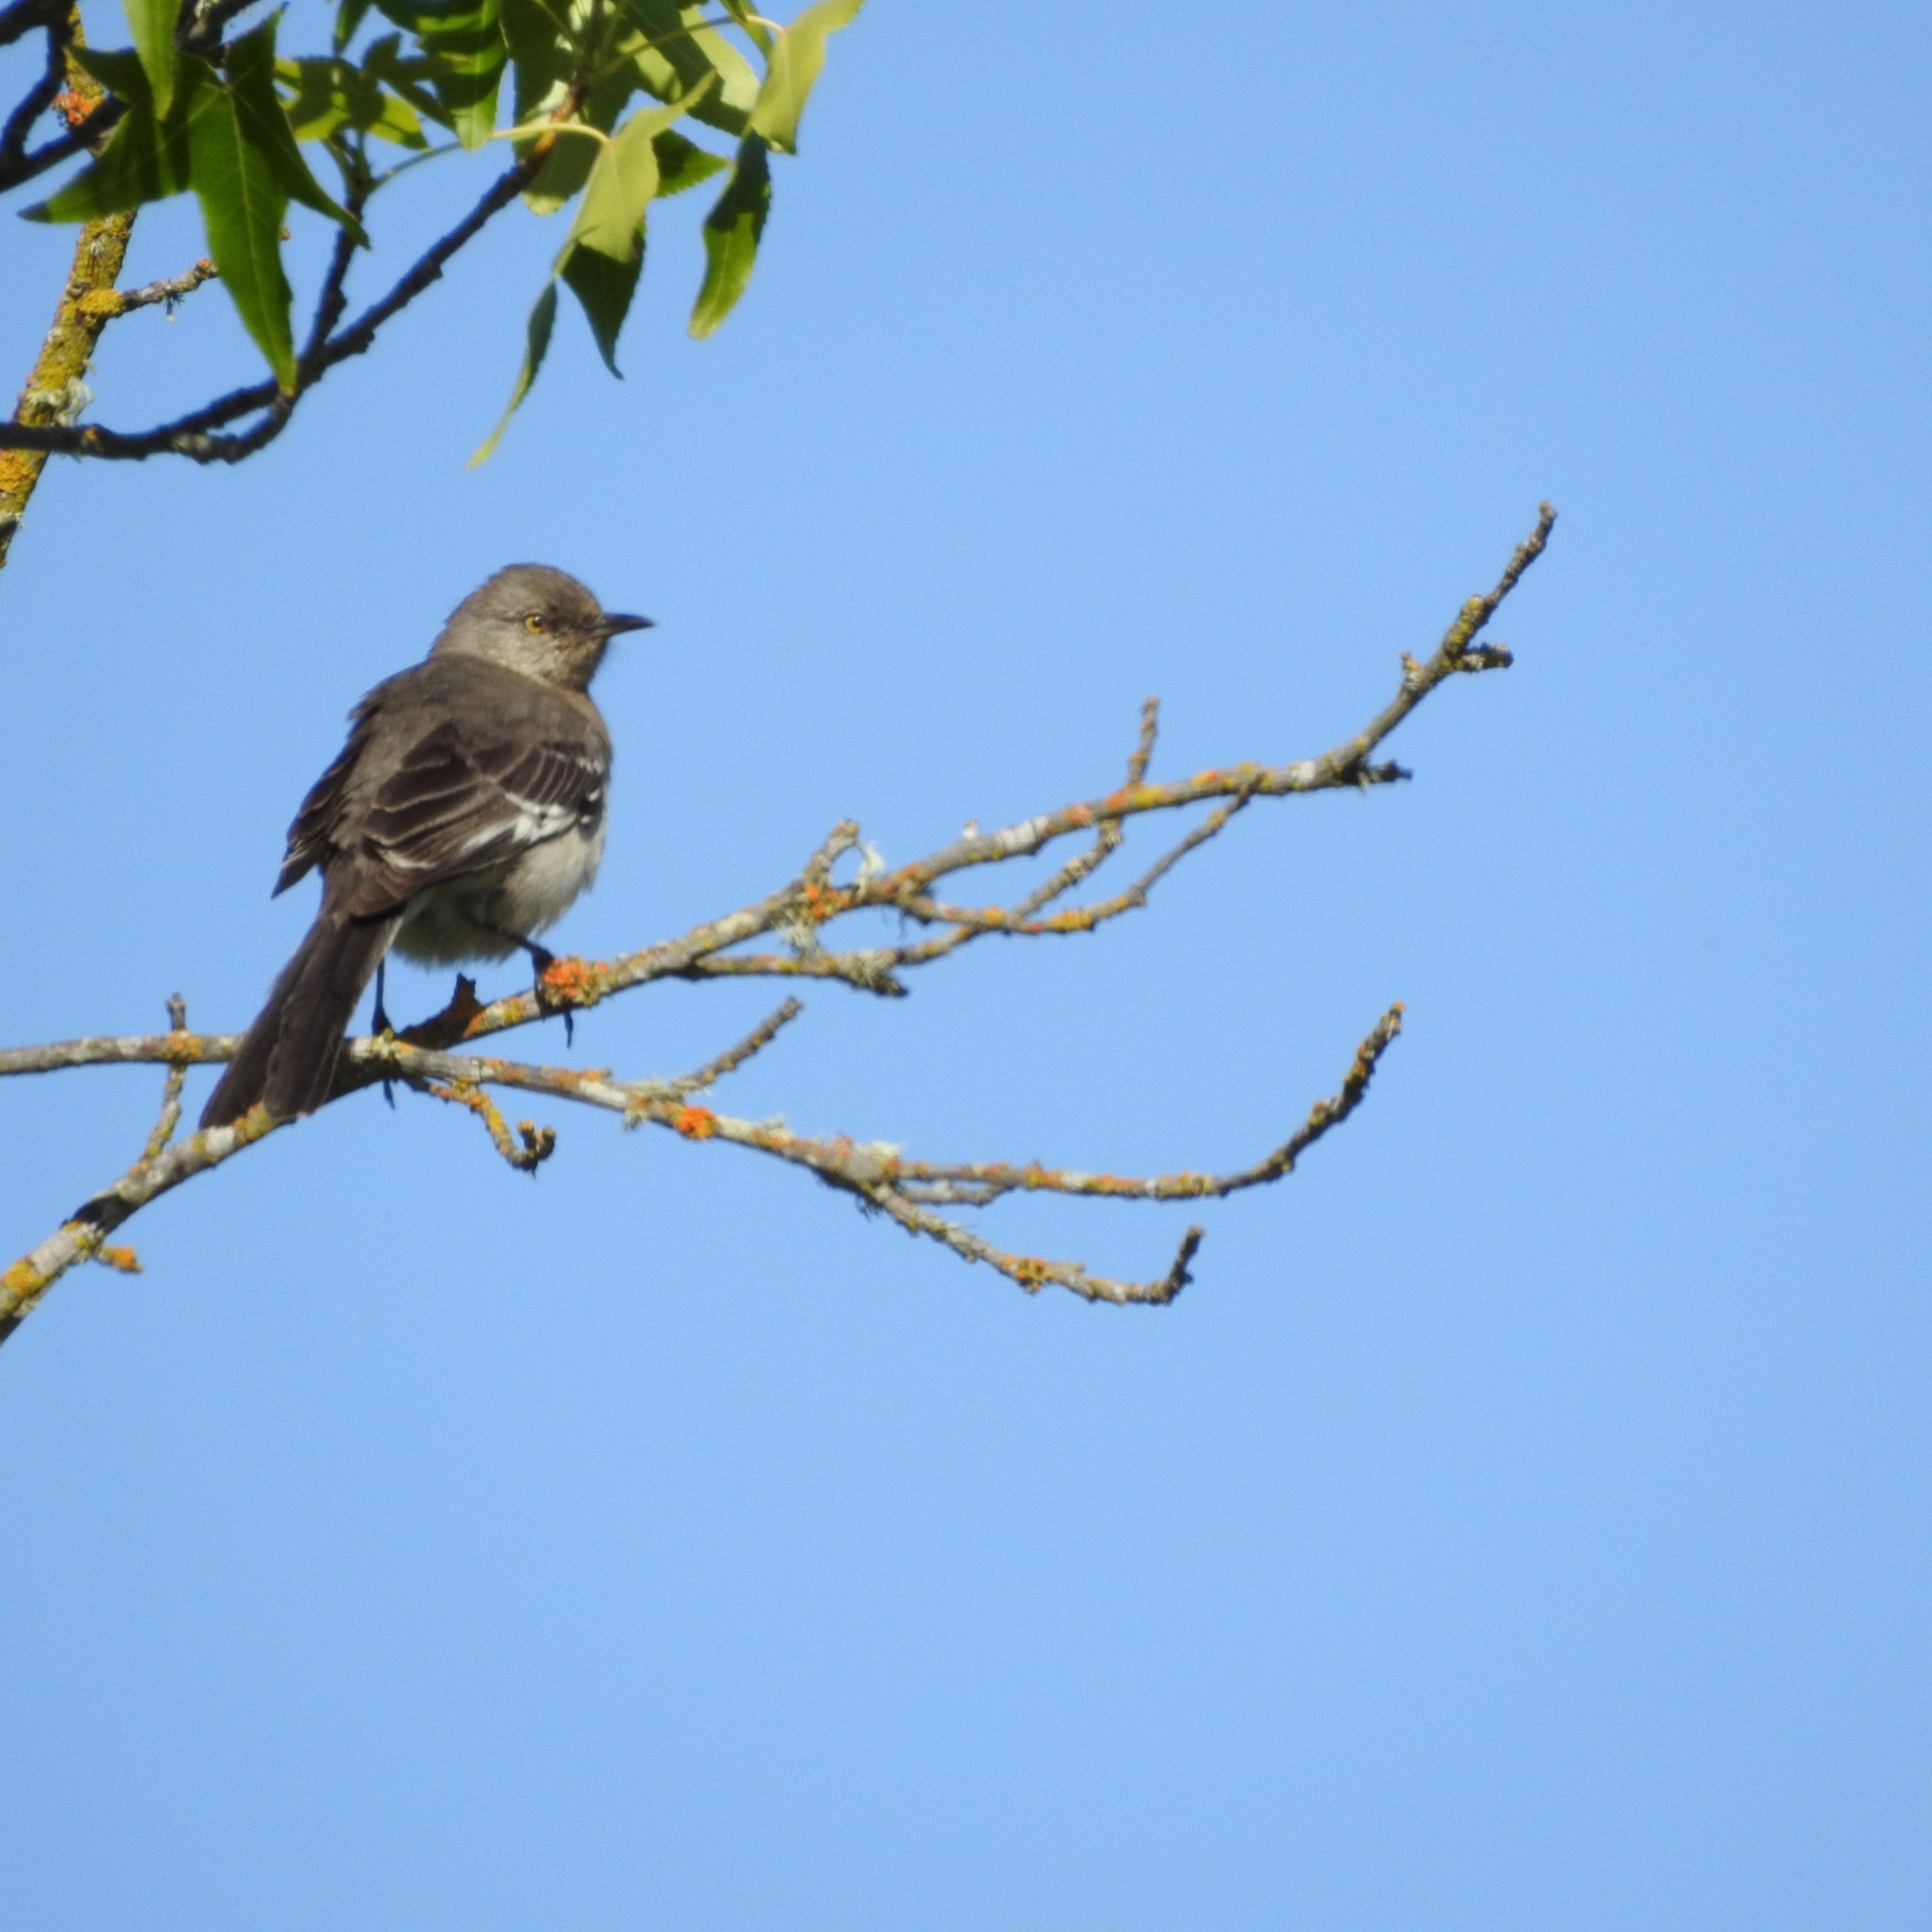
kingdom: Animalia
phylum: Chordata
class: Aves
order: Passeriformes
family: Mimidae
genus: Mimus
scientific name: Mimus polyglottos
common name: Northern mockingbird
